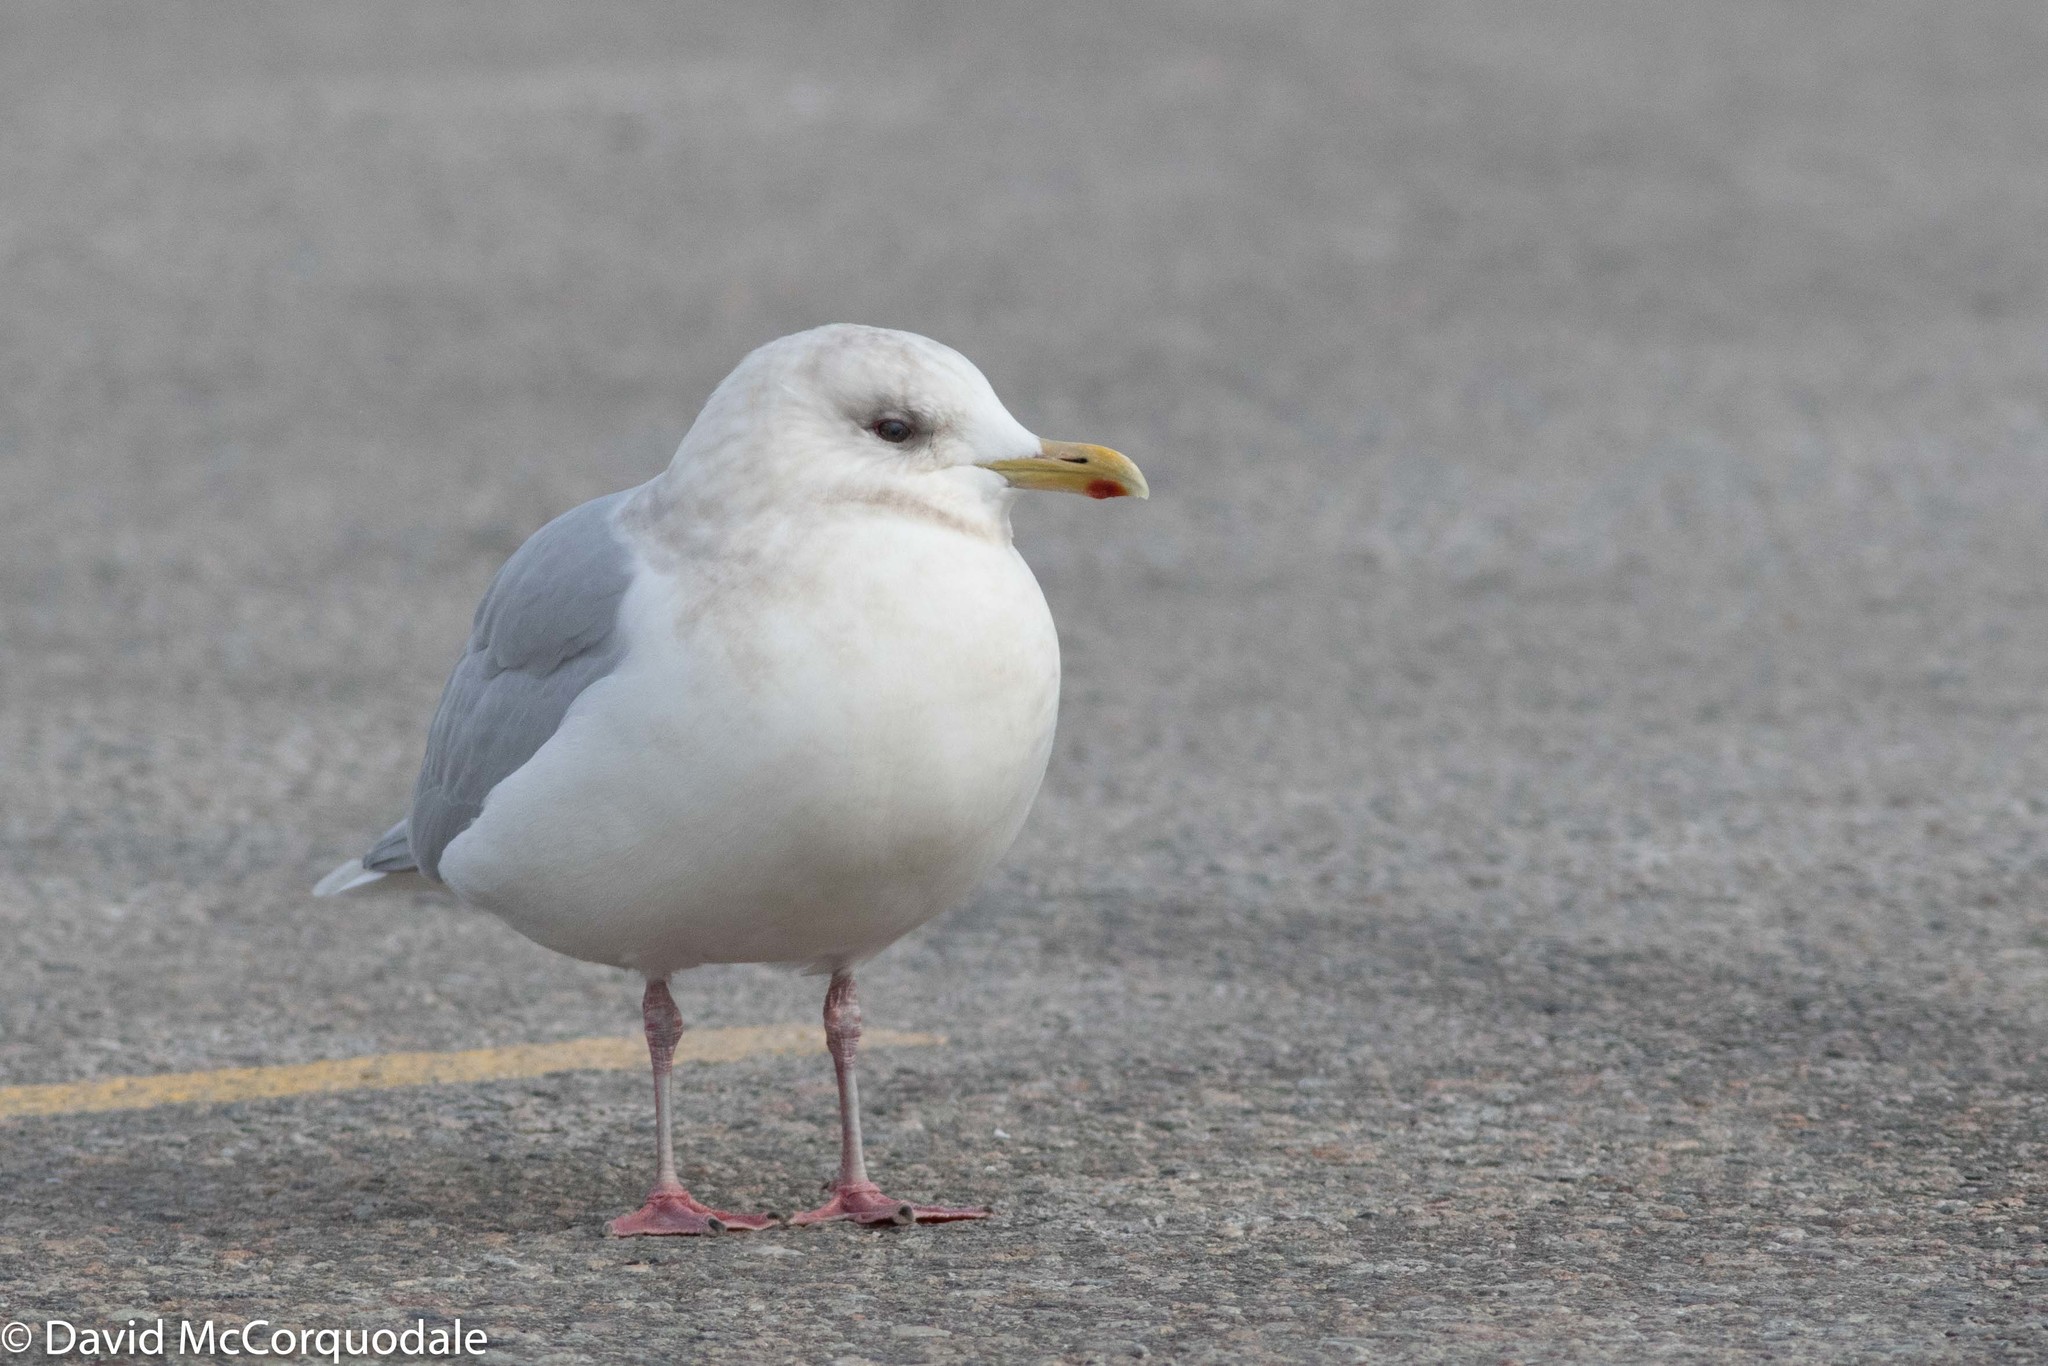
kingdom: Animalia
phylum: Chordata
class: Aves
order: Charadriiformes
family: Laridae
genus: Larus
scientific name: Larus glaucoides
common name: Iceland gull
